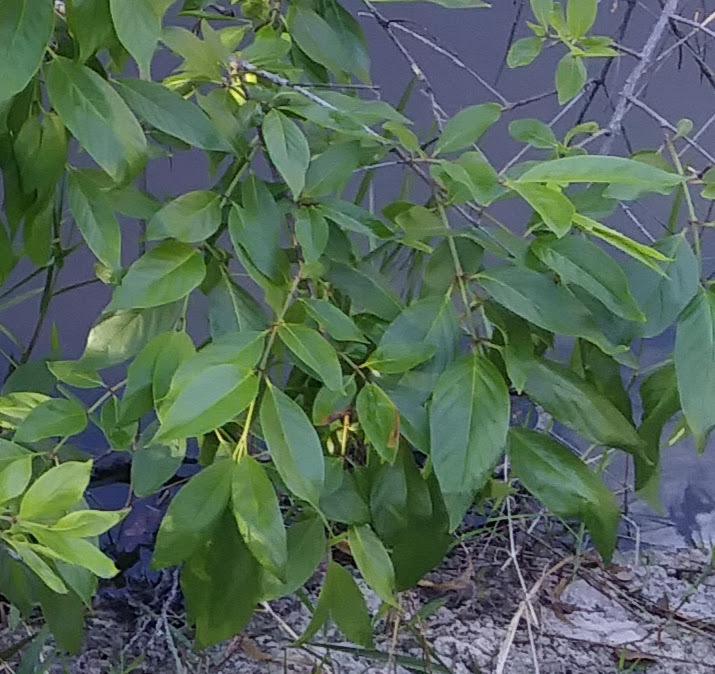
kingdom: Plantae
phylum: Tracheophyta
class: Magnoliopsida
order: Gentianales
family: Rubiaceae
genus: Cephalanthus
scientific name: Cephalanthus occidentalis
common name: Button-willow
